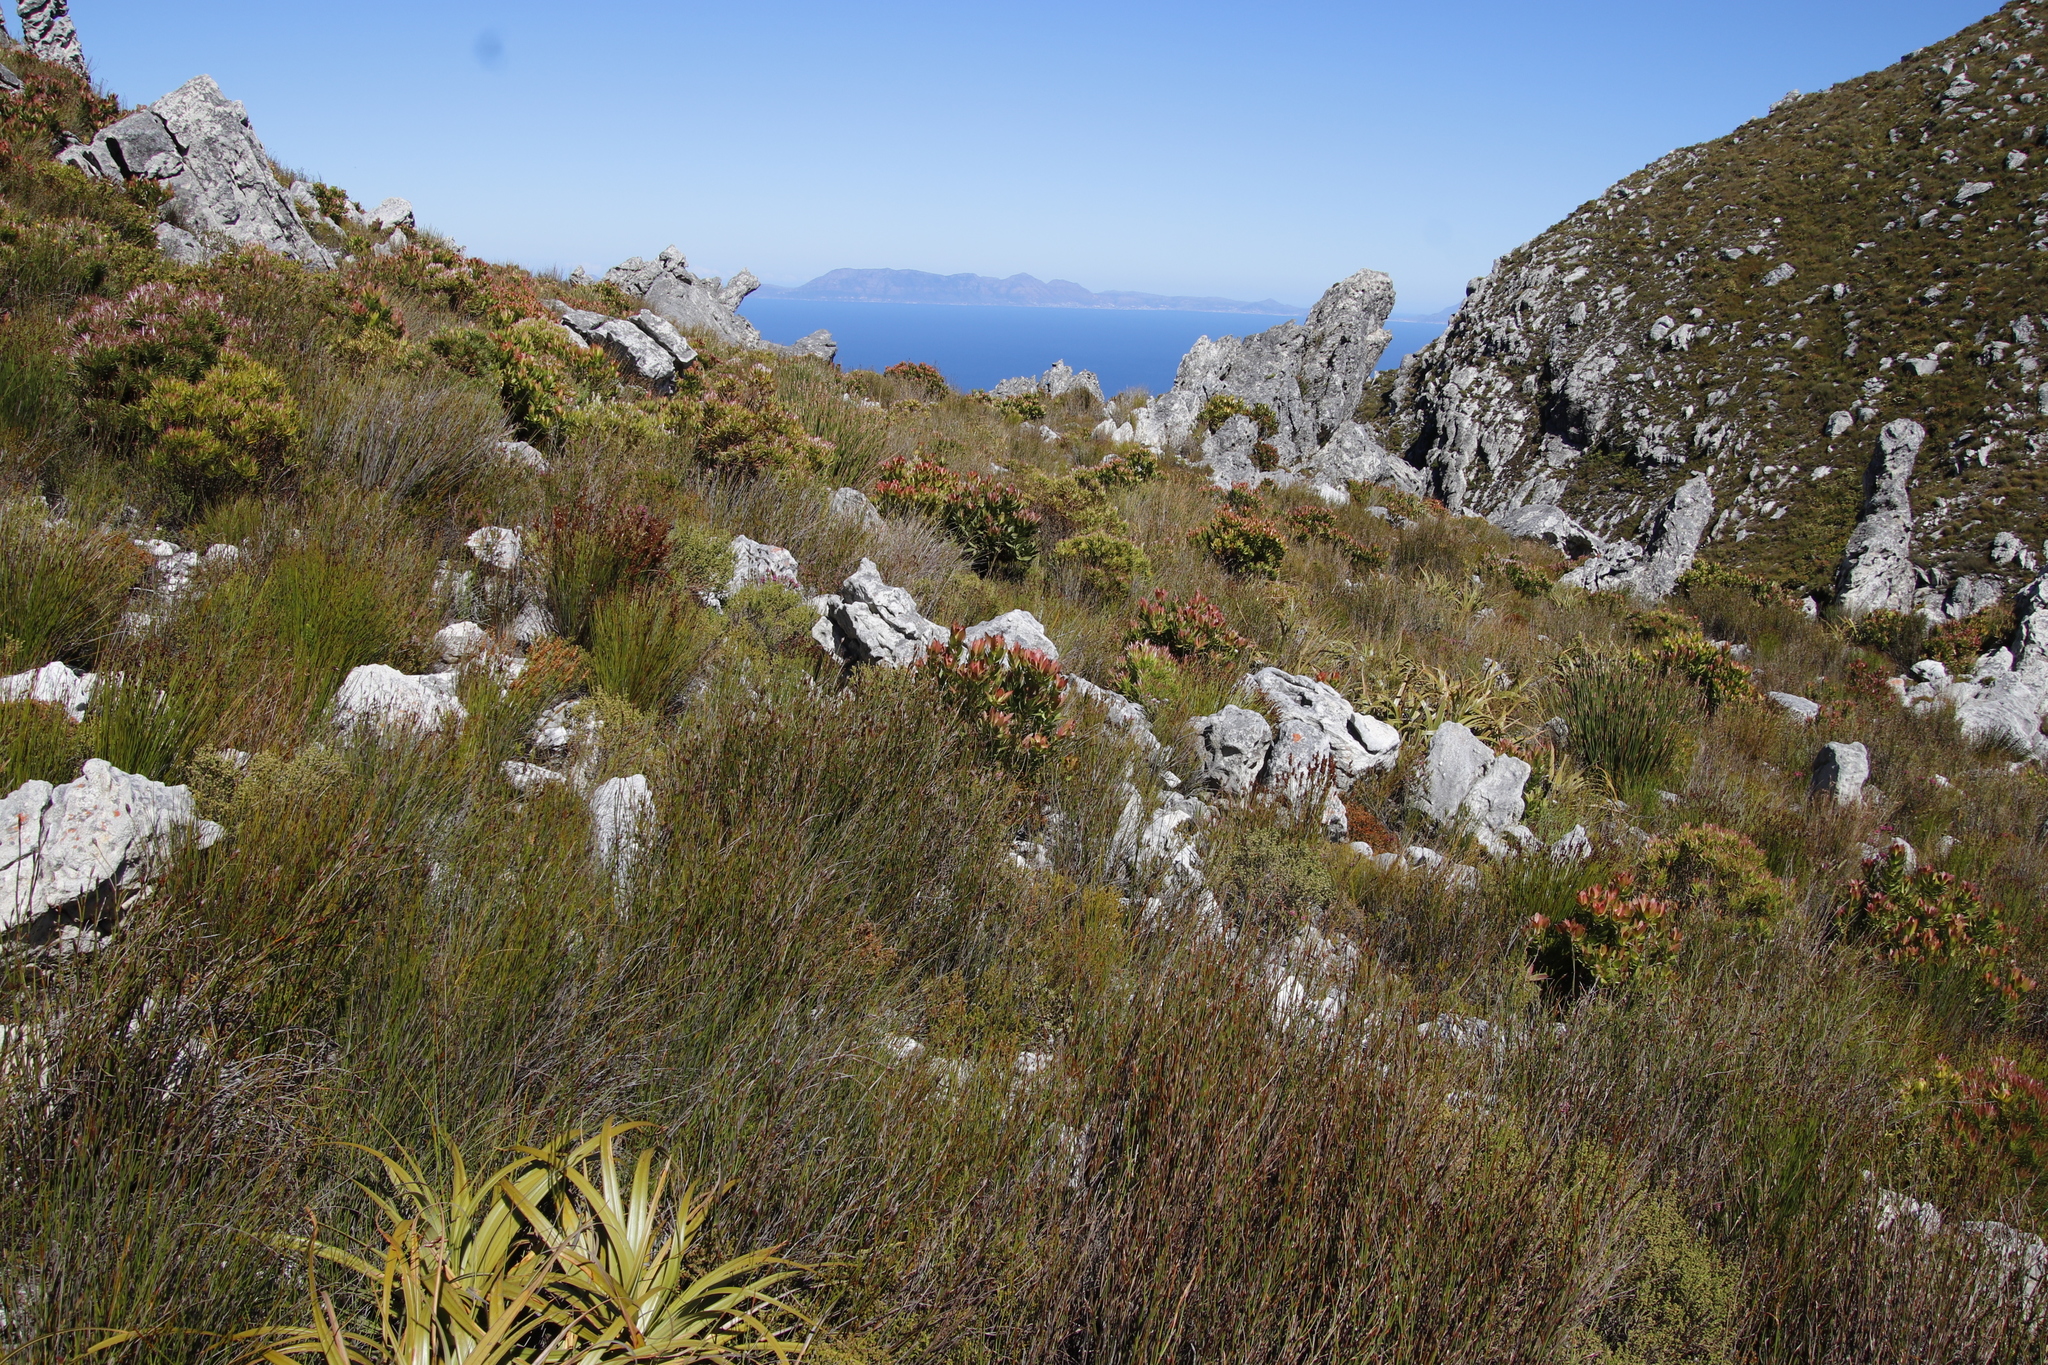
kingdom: Plantae
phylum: Tracheophyta
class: Magnoliopsida
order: Proteales
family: Proteaceae
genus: Leucadendron
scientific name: Leucadendron xanthoconus
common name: Sickle-leaf conebush
